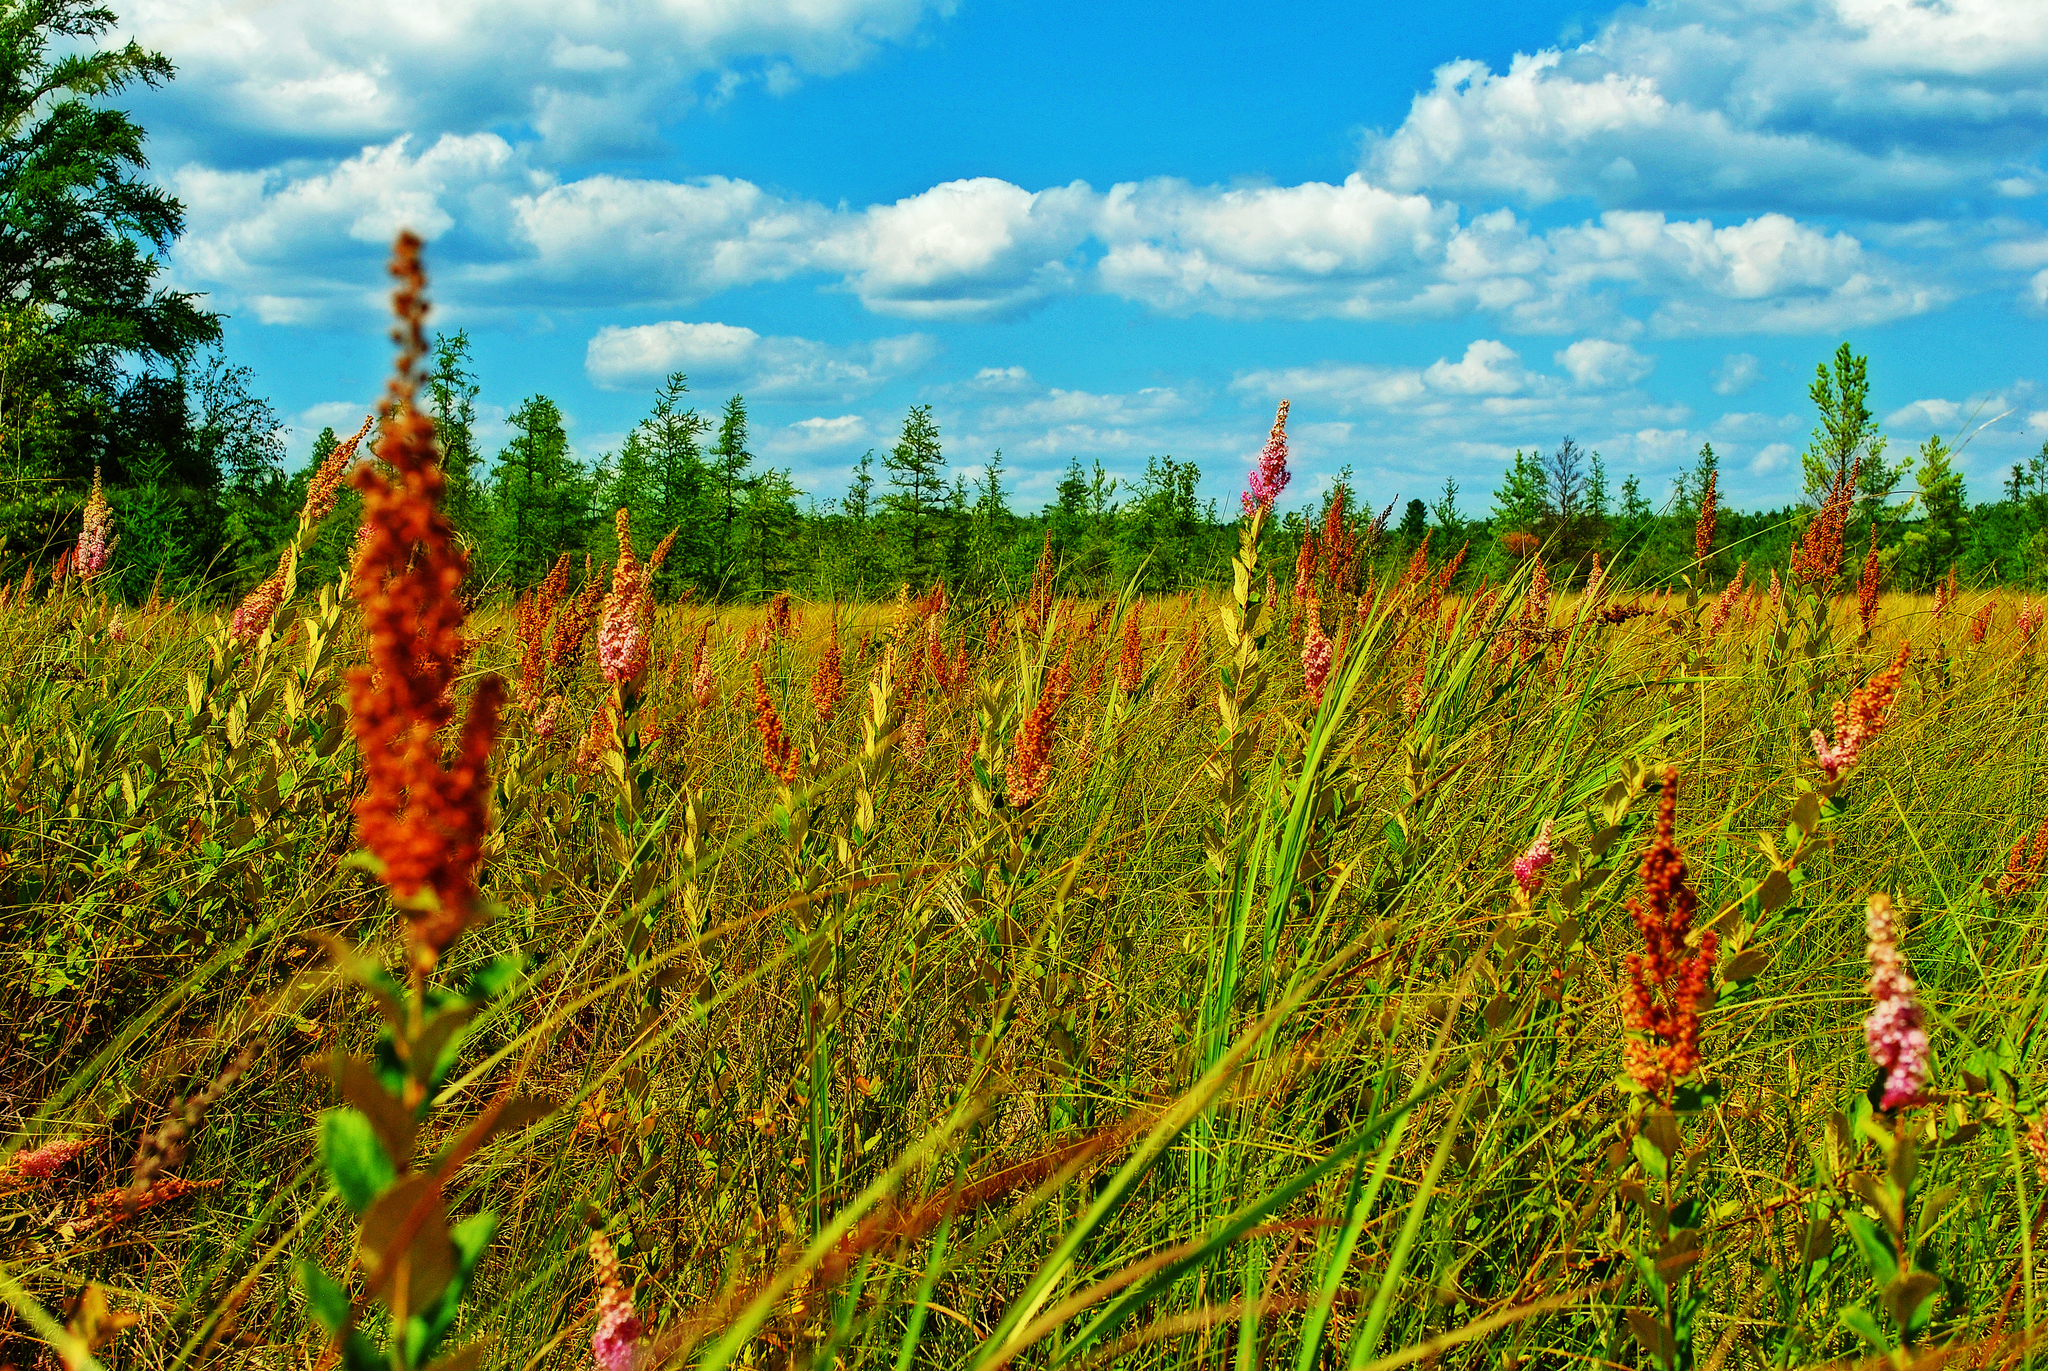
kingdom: Plantae
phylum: Tracheophyta
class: Magnoliopsida
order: Rosales
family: Rosaceae
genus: Spiraea
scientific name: Spiraea tomentosa
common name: Hardhack
